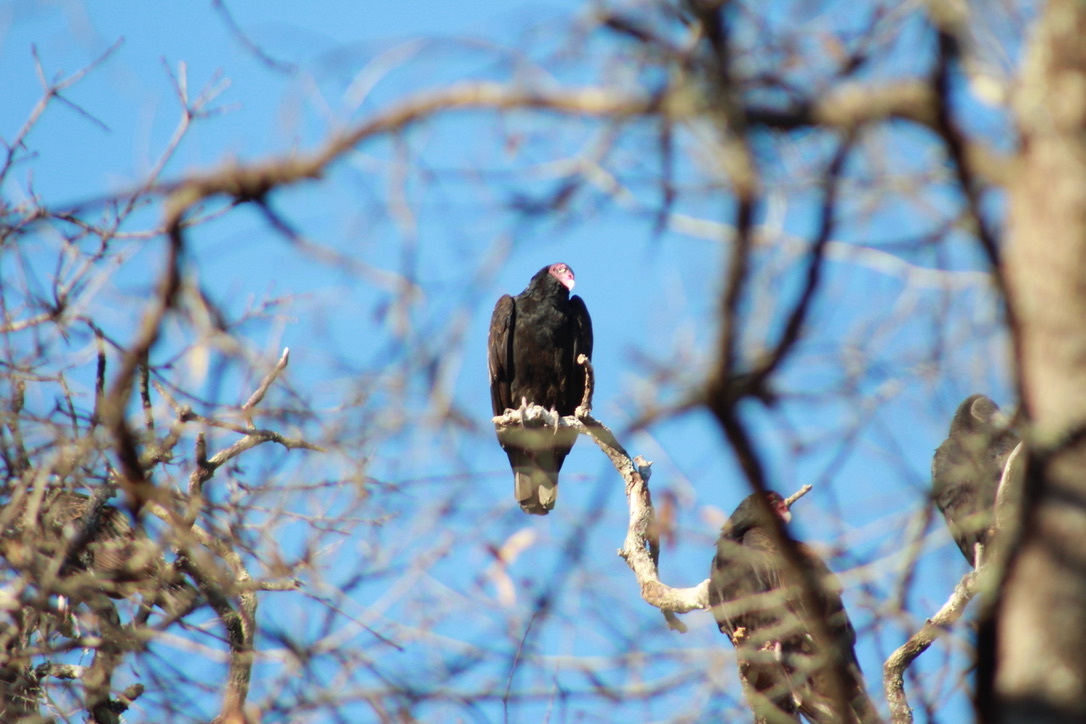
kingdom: Animalia
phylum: Chordata
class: Aves
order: Accipitriformes
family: Cathartidae
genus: Cathartes
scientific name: Cathartes aura
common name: Turkey vulture
